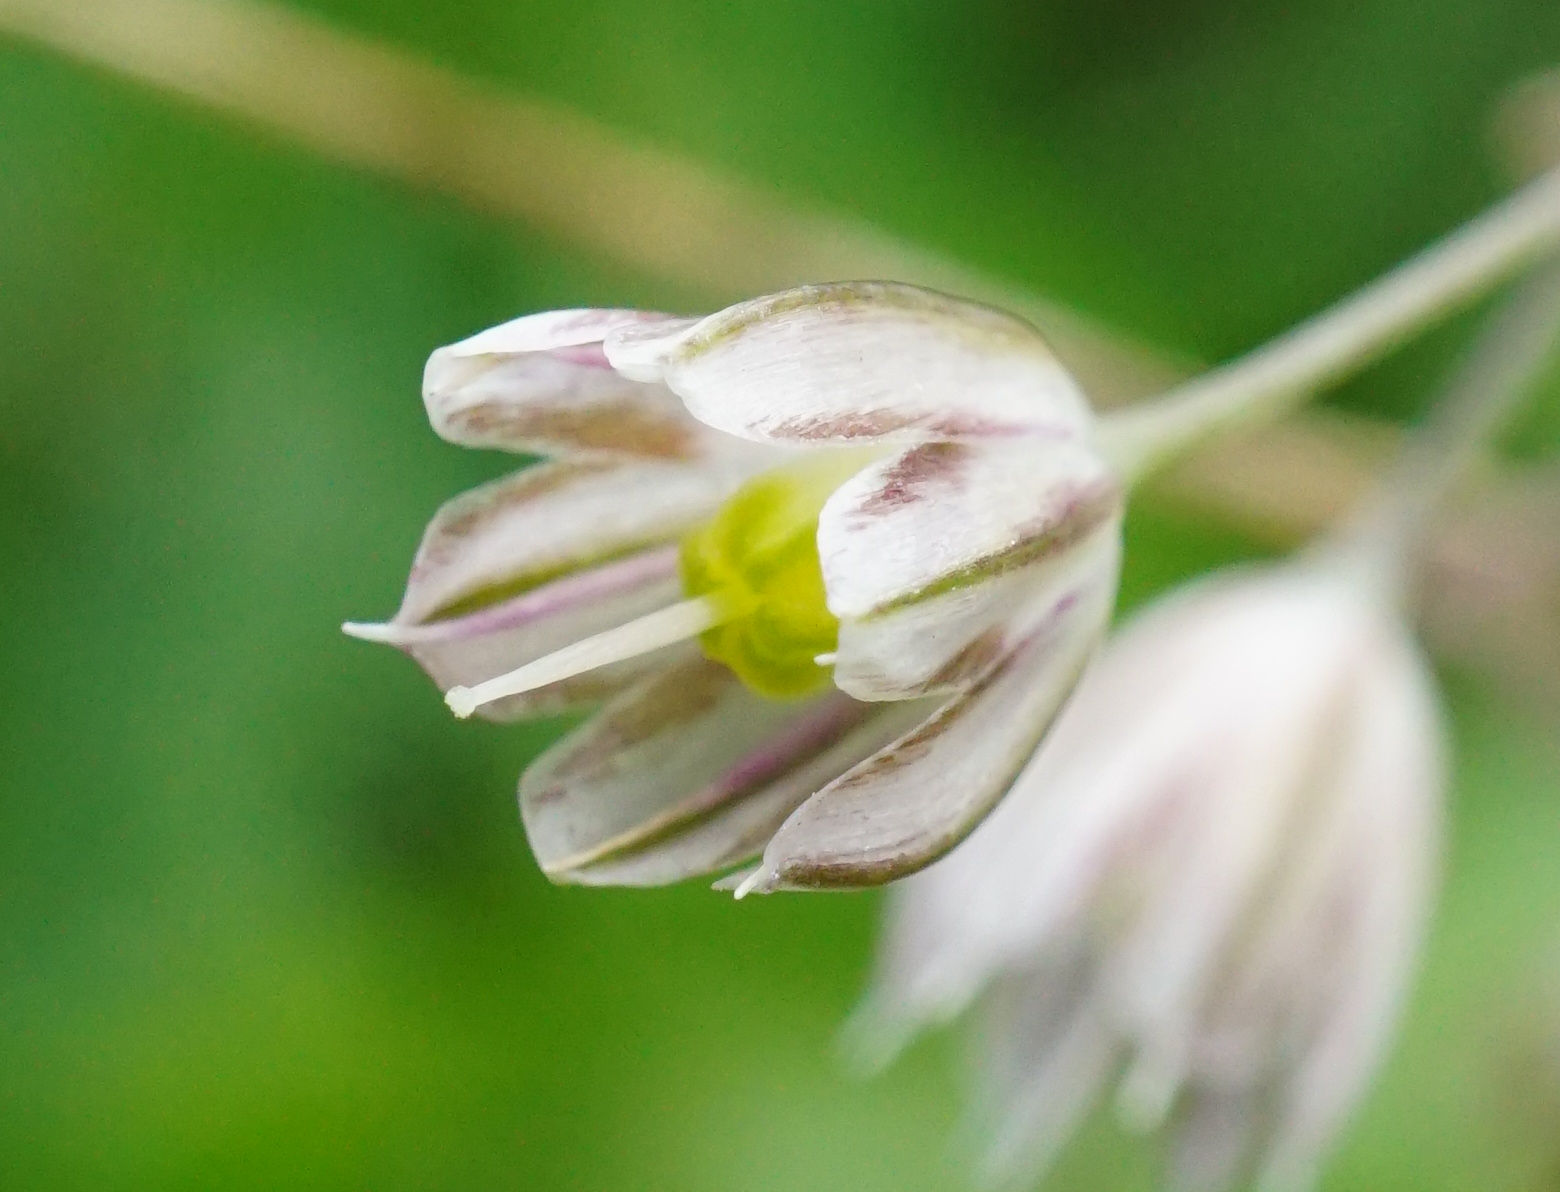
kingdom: Plantae
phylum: Tracheophyta
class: Liliopsida
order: Asparagales
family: Amaryllidaceae
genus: Allium
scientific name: Allium oleraceum
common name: Field garlic
